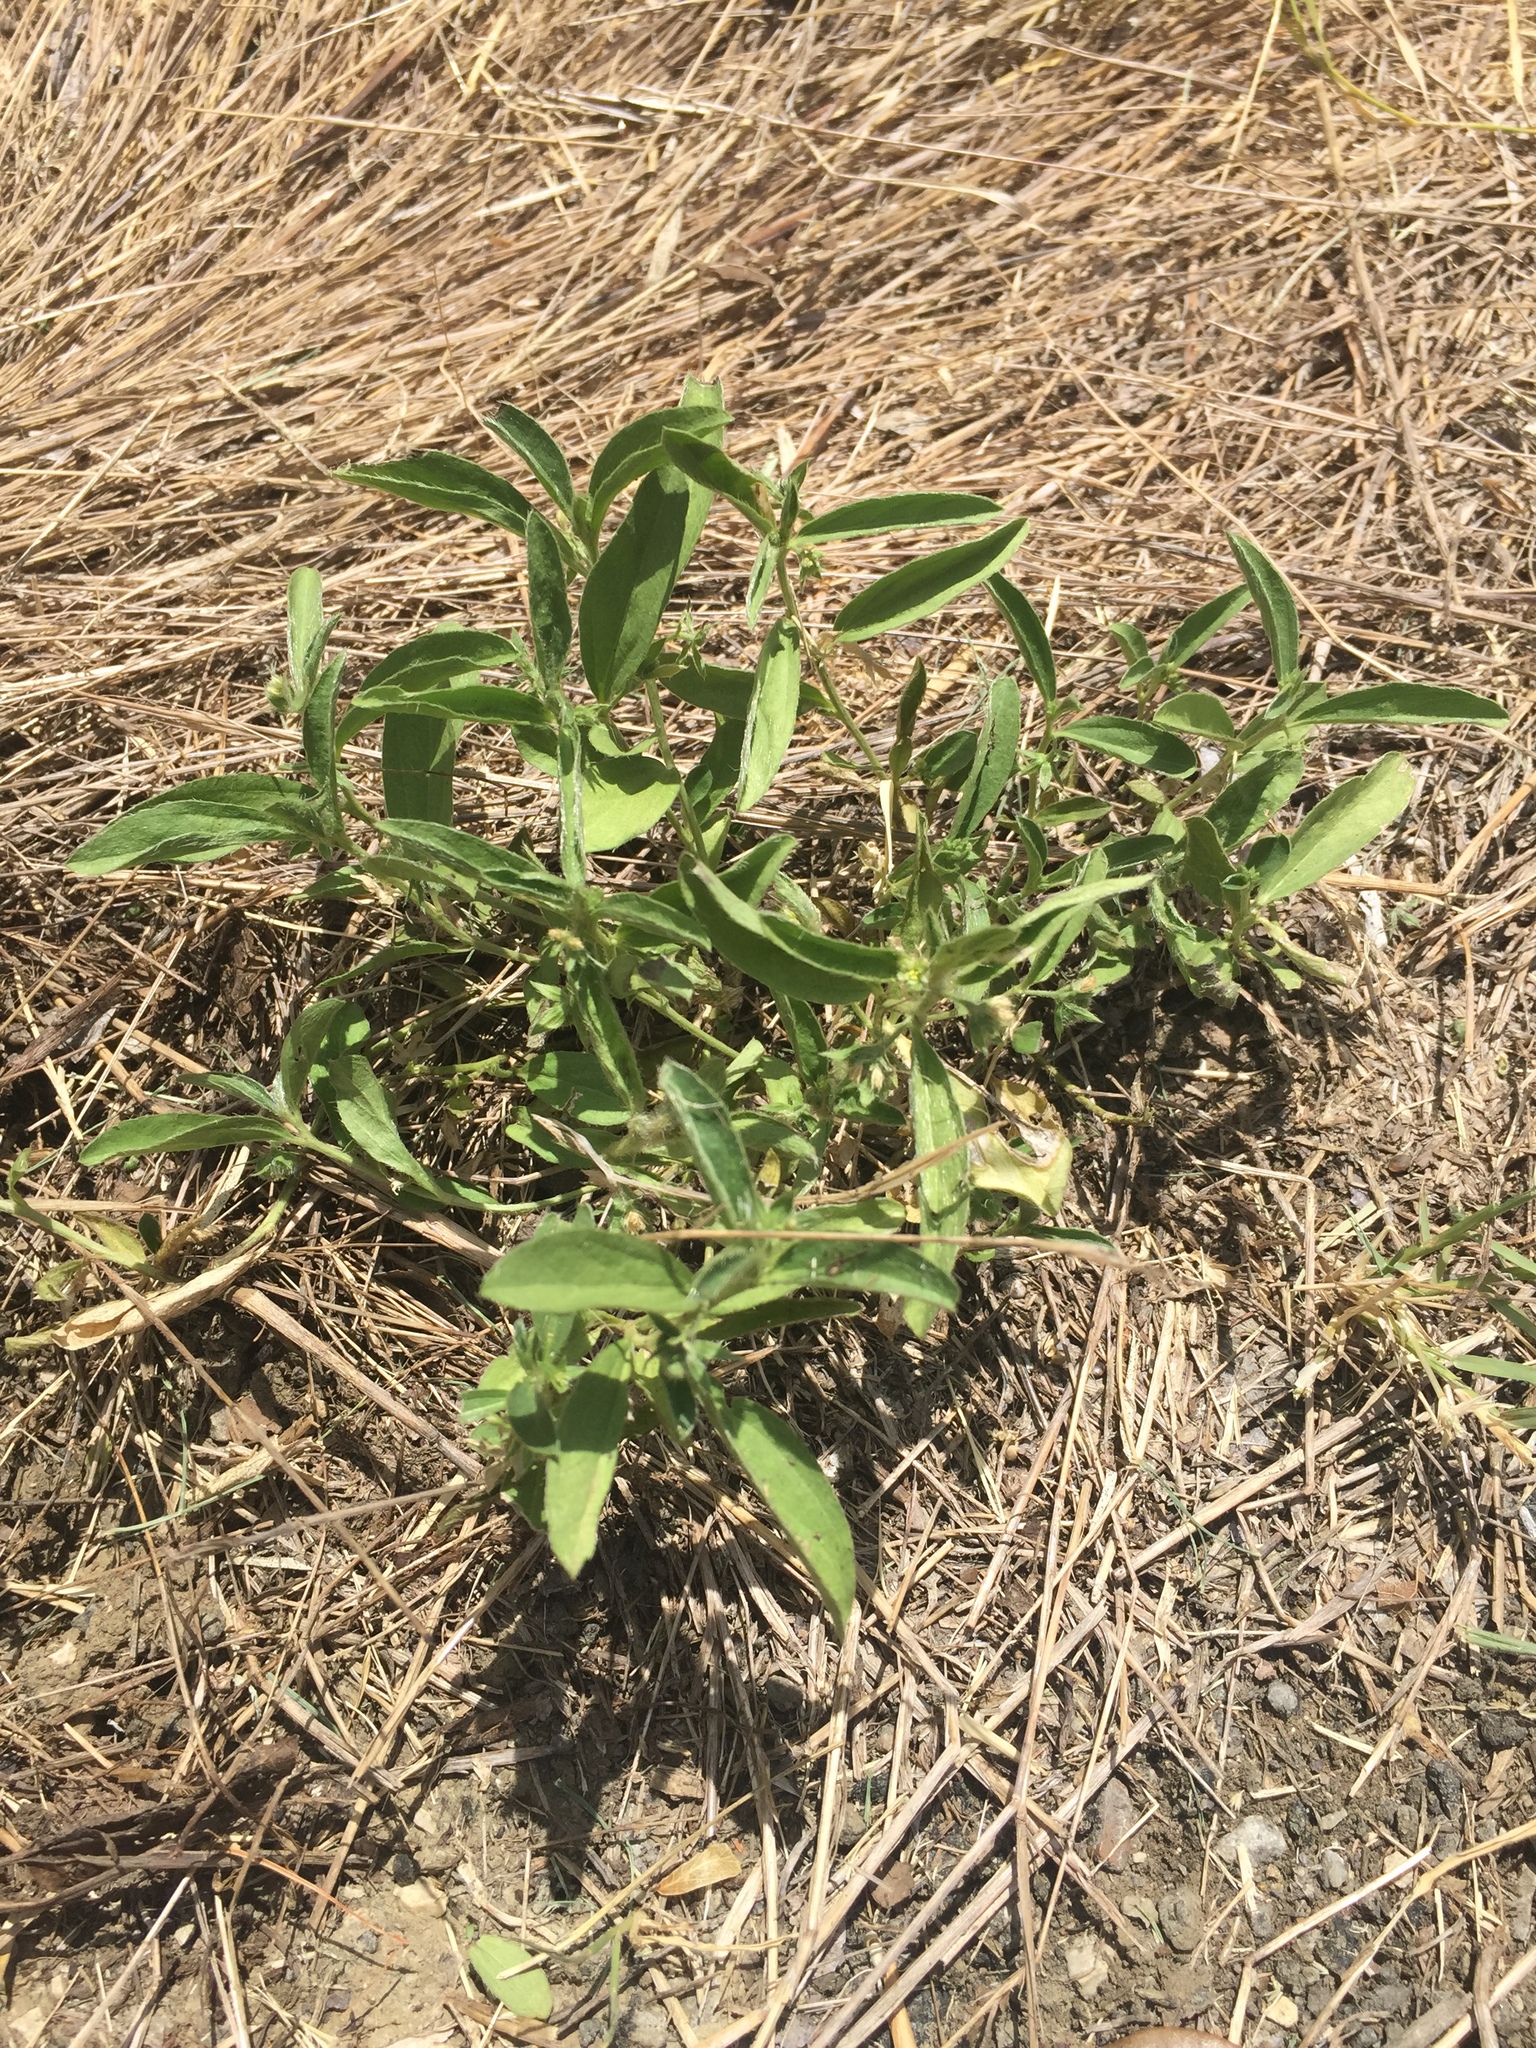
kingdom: Plantae
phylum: Tracheophyta
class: Magnoliopsida
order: Malpighiales
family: Euphorbiaceae
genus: Ditaxis
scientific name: Ditaxis humilis
